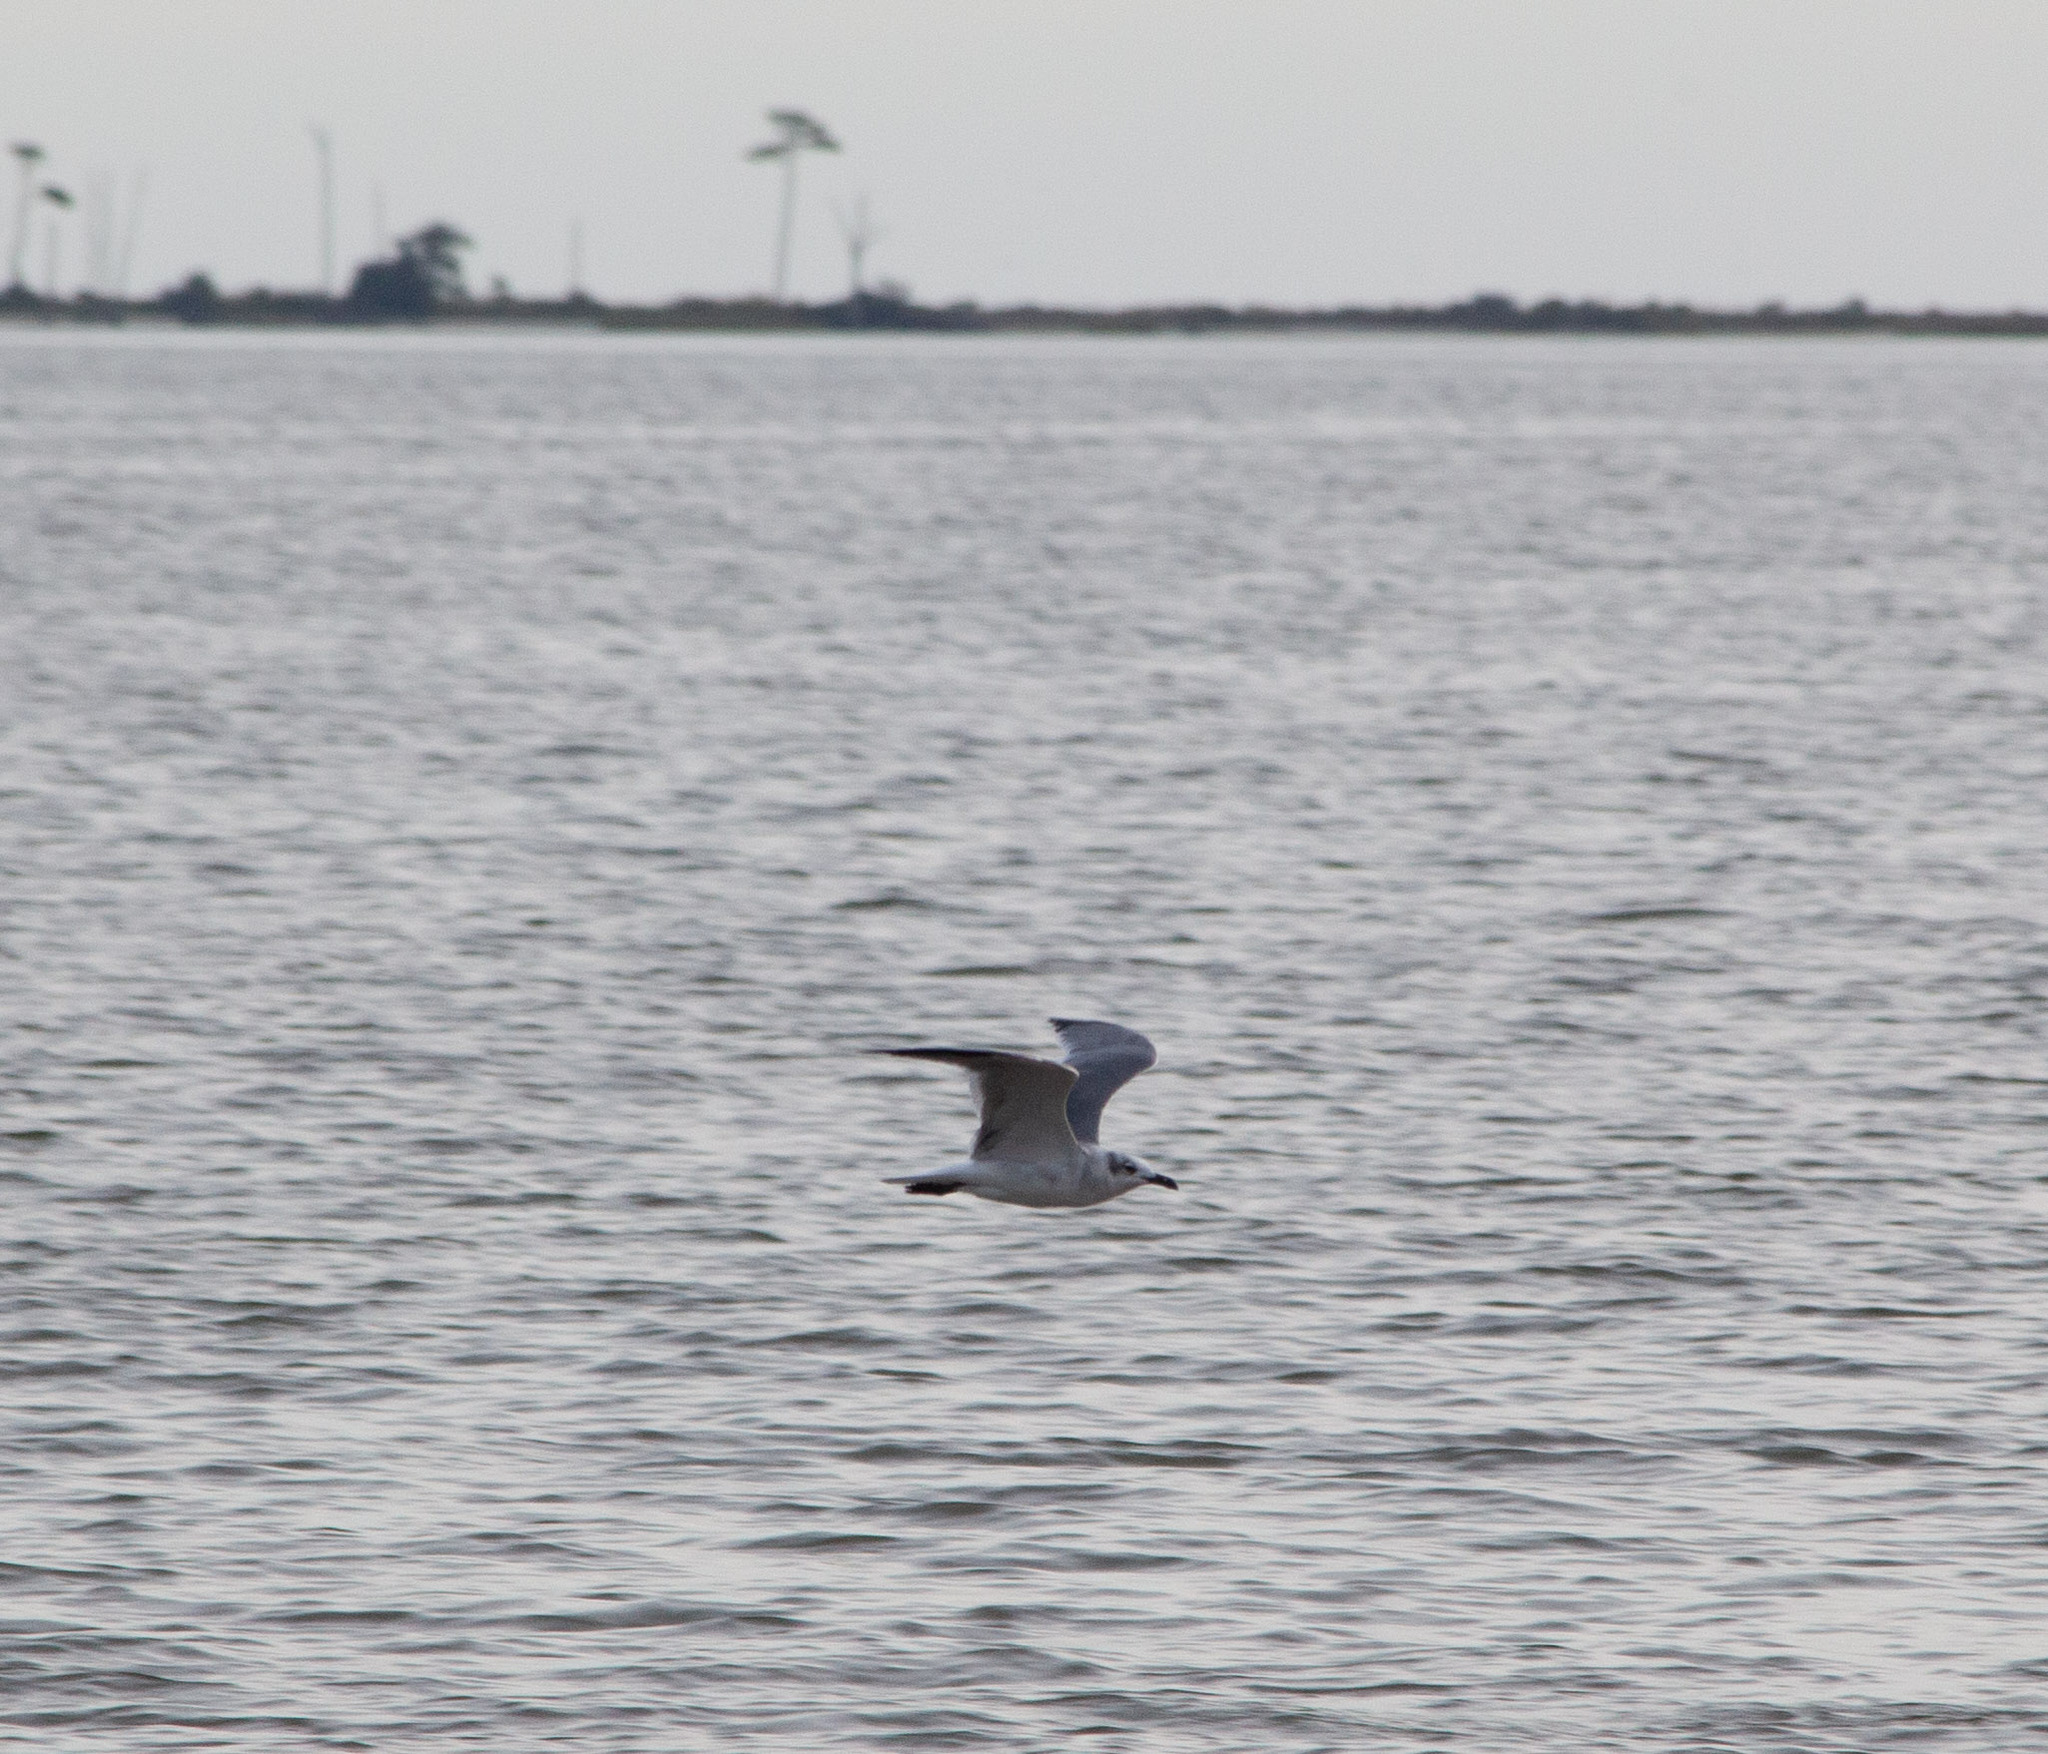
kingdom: Animalia
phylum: Chordata
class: Aves
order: Charadriiformes
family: Laridae
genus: Leucophaeus
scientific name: Leucophaeus atricilla
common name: Laughing gull
